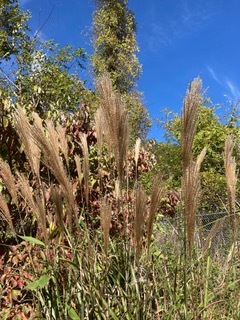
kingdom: Plantae
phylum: Tracheophyta
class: Liliopsida
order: Poales
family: Poaceae
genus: Miscanthus
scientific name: Miscanthus sinensis
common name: Chinese silvergrass
